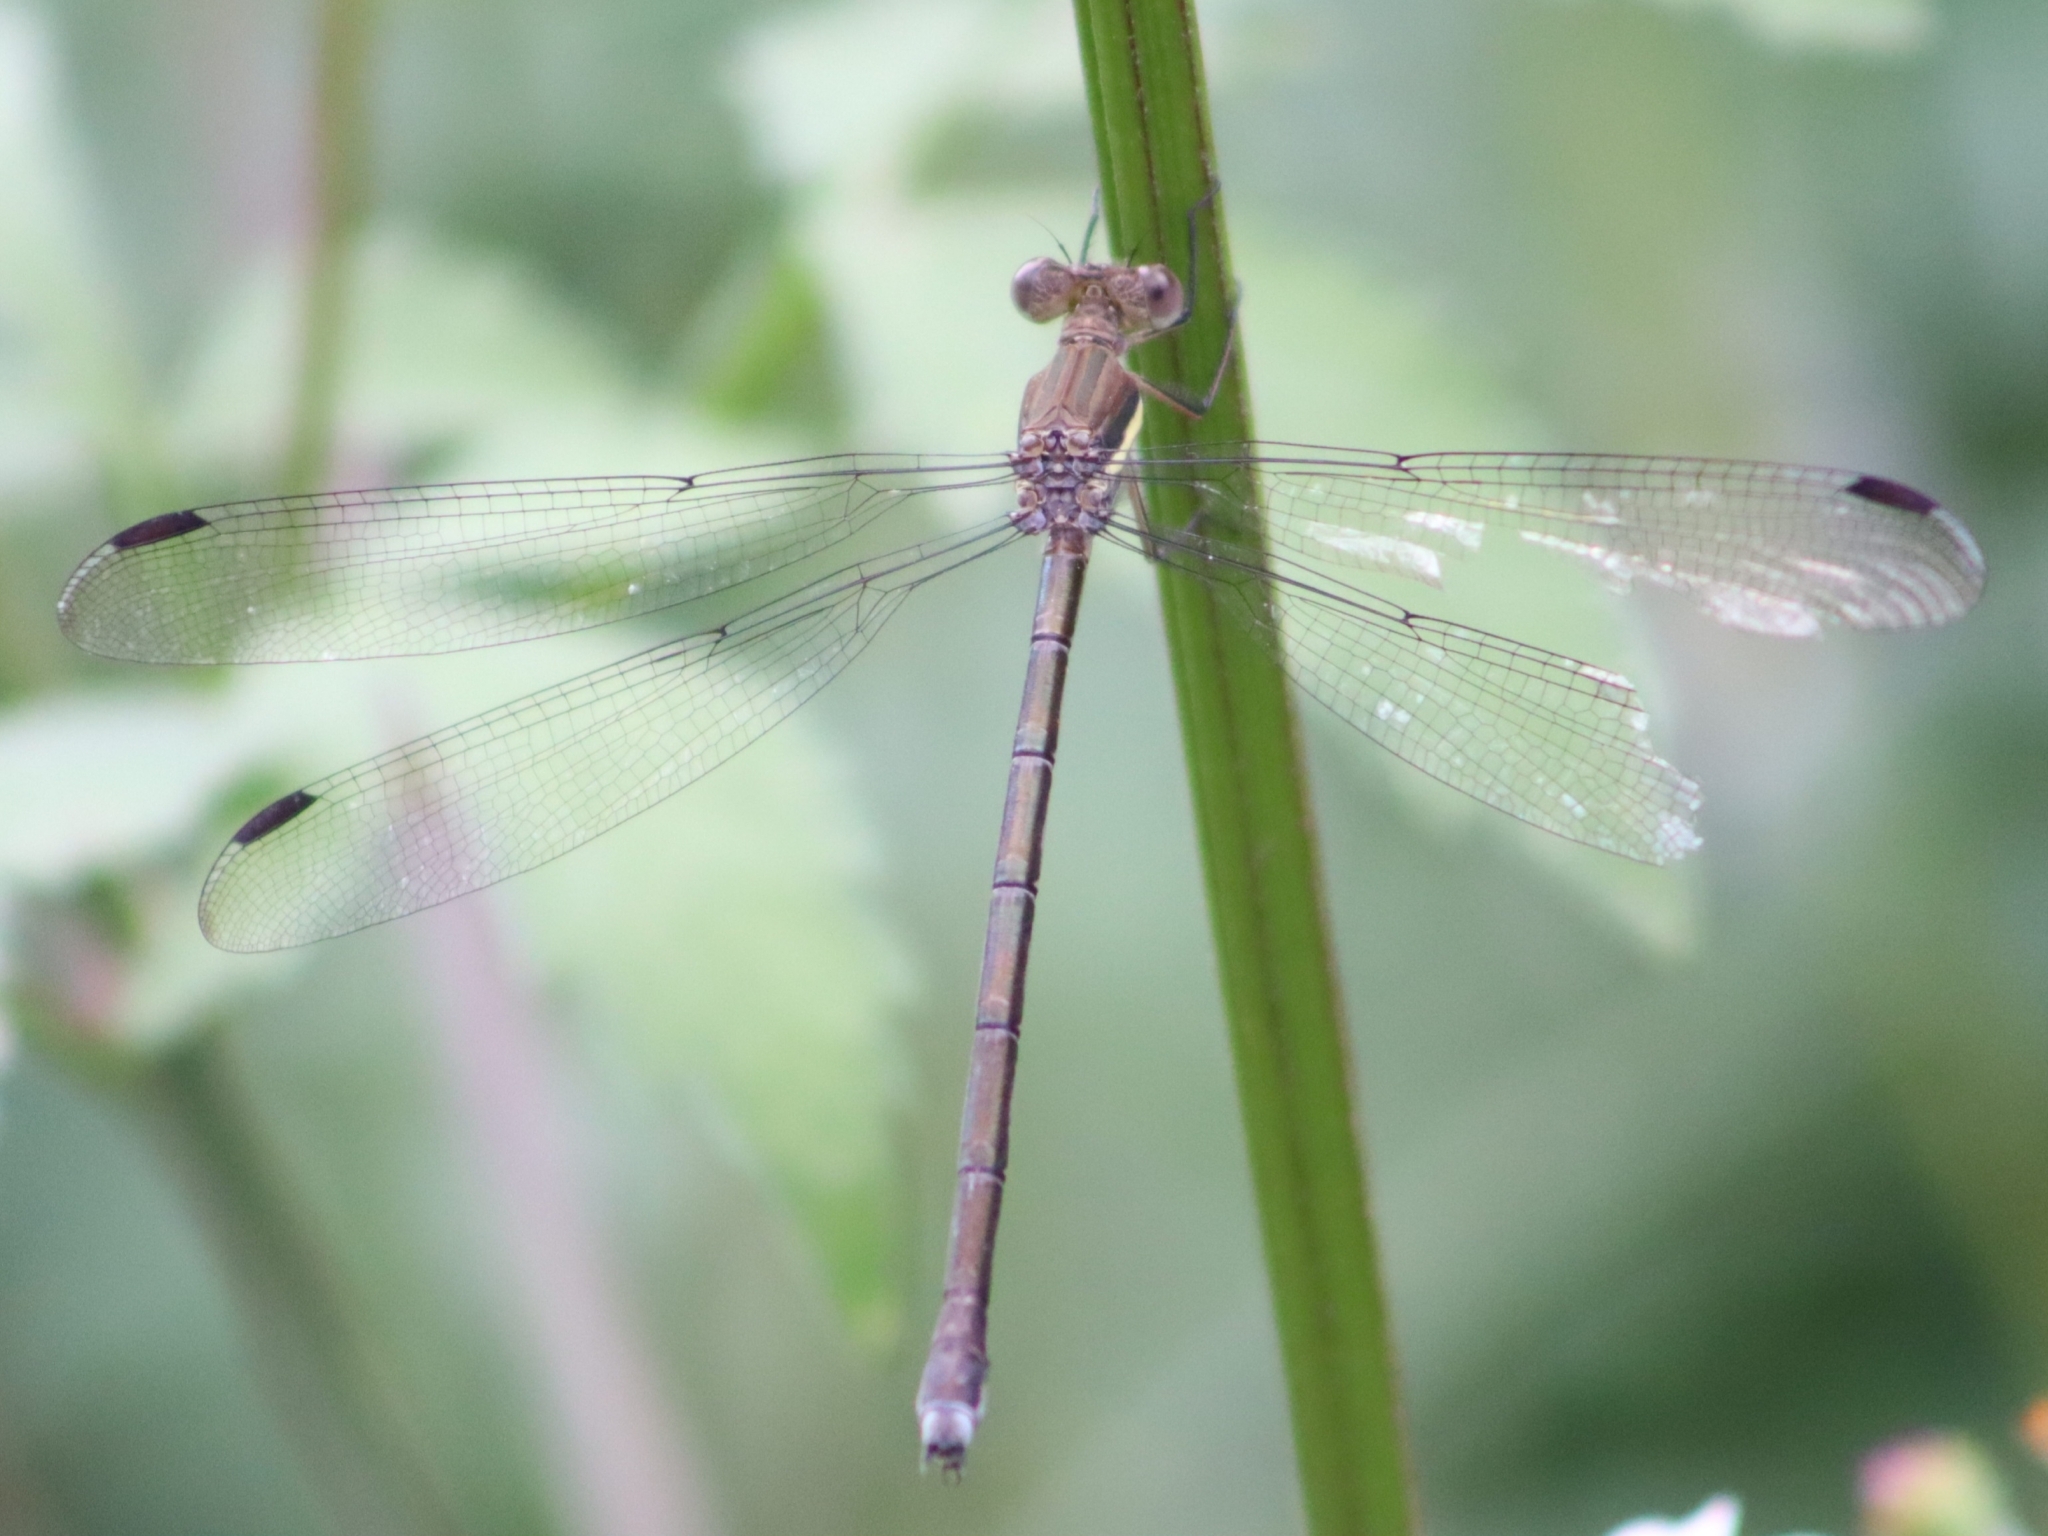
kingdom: Animalia
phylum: Arthropoda
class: Insecta
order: Odonata
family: Lestidae
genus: Archilestes
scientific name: Archilestes grandis
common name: Great spreadwing
